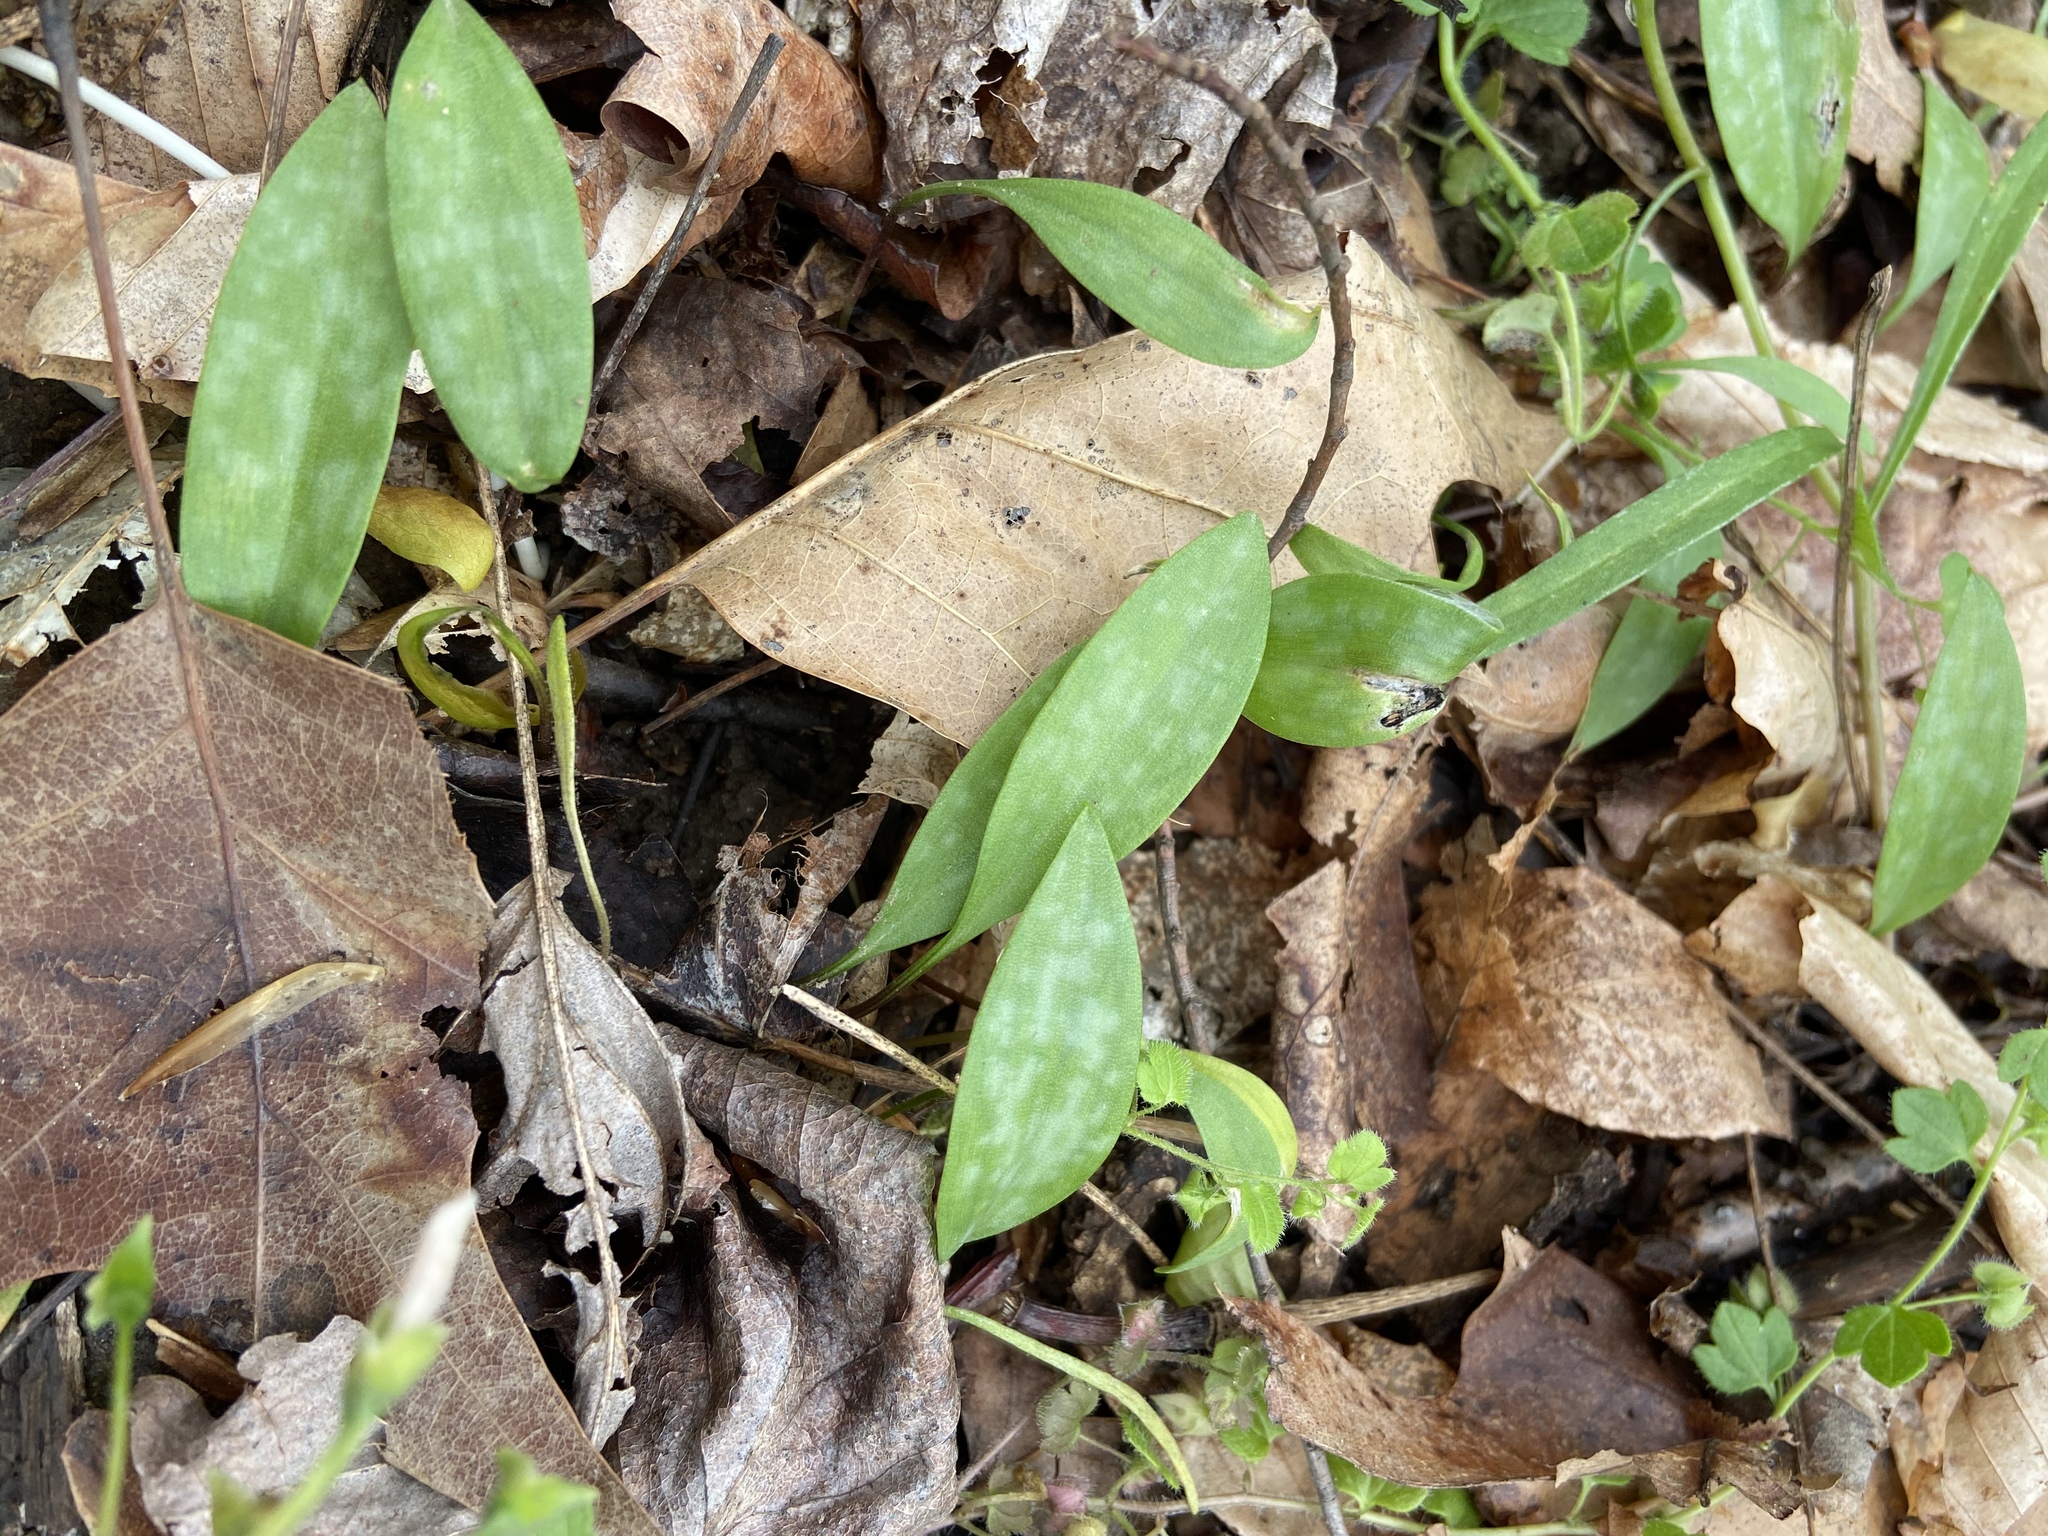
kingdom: Plantae
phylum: Tracheophyta
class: Liliopsida
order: Liliales
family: Liliaceae
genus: Erythronium
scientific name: Erythronium americanum
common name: Yellow adder's-tongue
